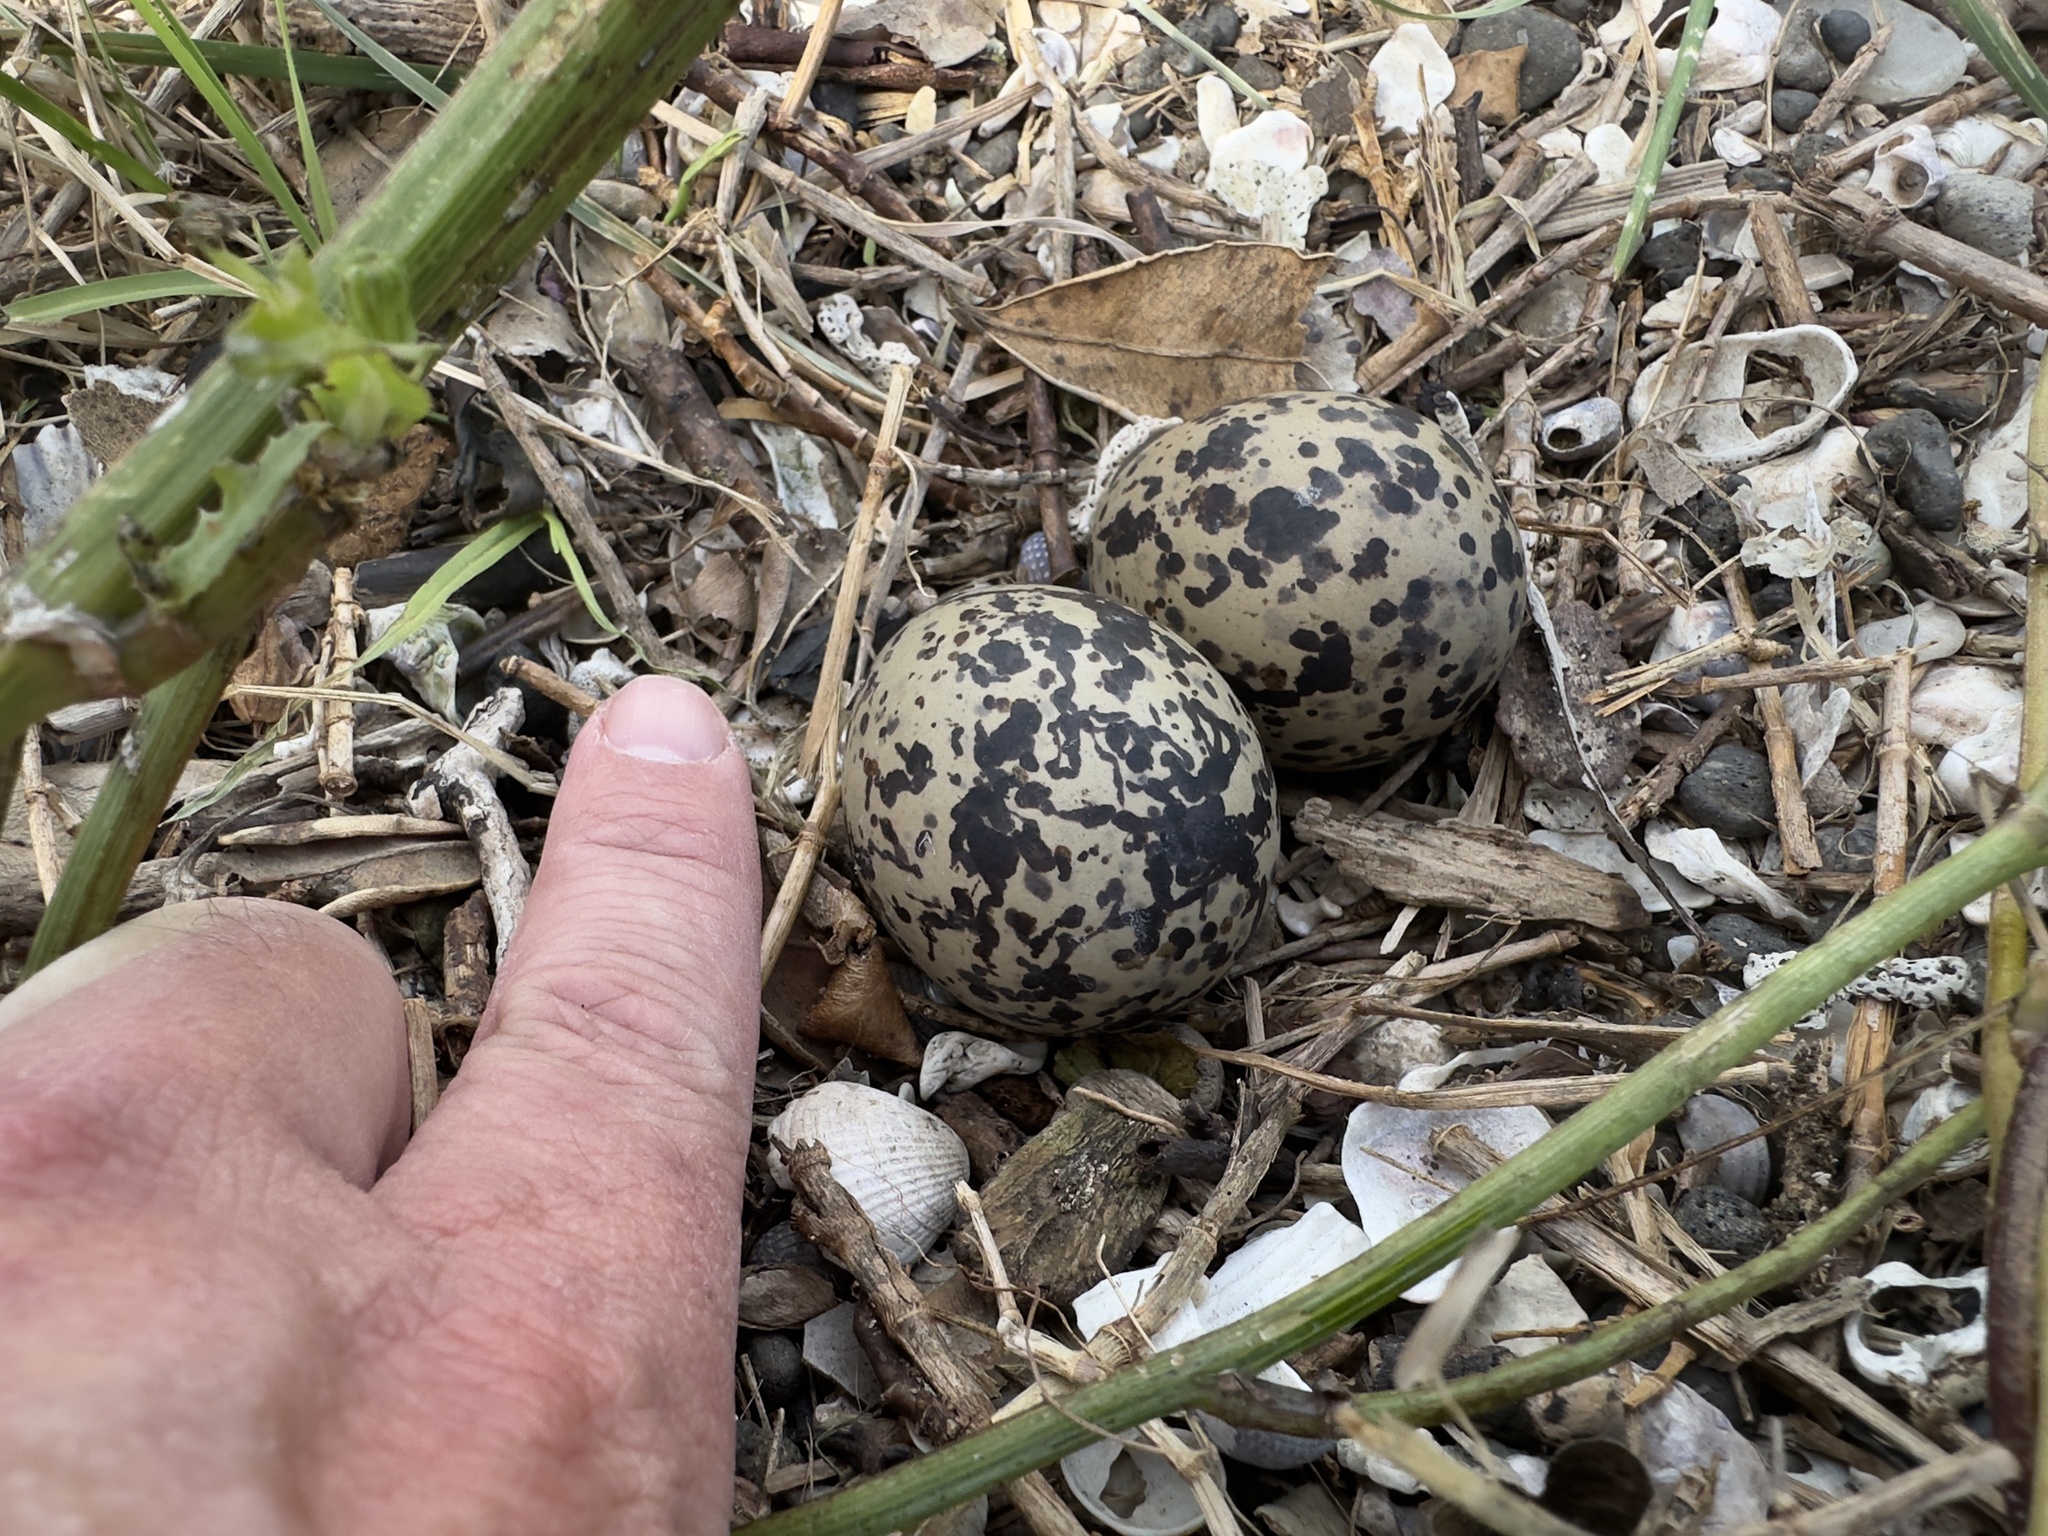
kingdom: Animalia
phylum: Chordata
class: Aves
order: Charadriiformes
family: Haematopodidae
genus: Haematopus
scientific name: Haematopus unicolor
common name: Variable oystercatcher
